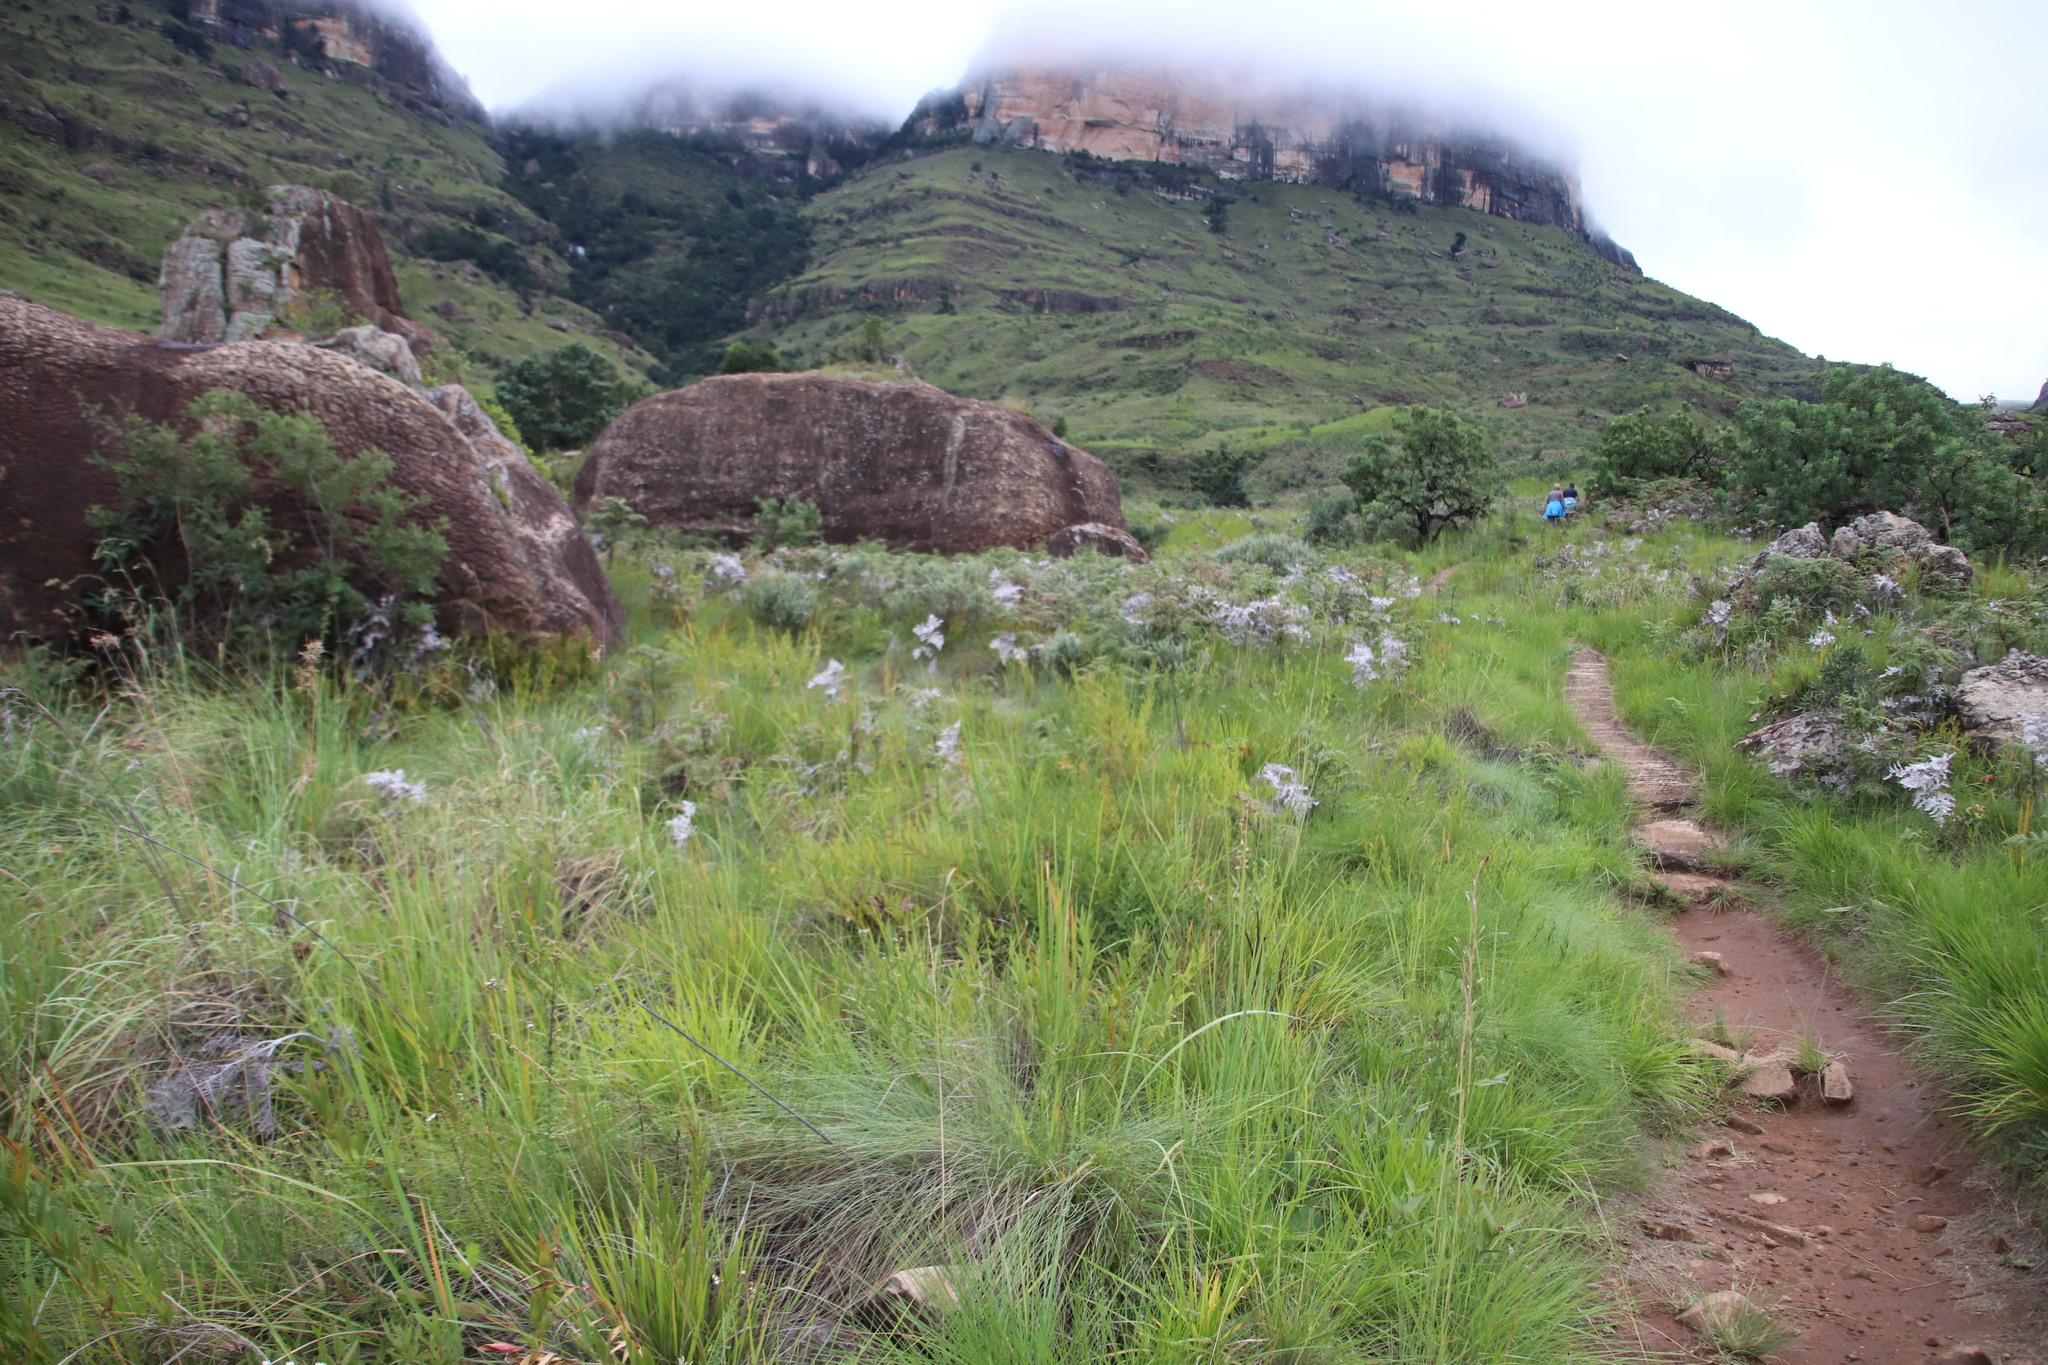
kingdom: Plantae
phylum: Tracheophyta
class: Magnoliopsida
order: Malpighiales
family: Linaceae
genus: Linum
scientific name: Linum thunbergii
